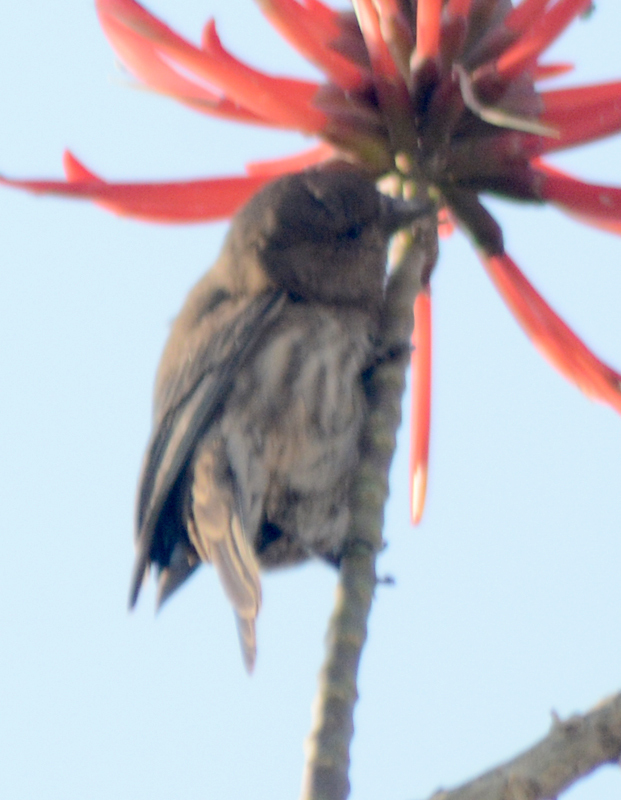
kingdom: Animalia
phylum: Chordata
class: Aves
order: Passeriformes
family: Fringillidae
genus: Haemorhous
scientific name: Haemorhous mexicanus
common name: House finch
